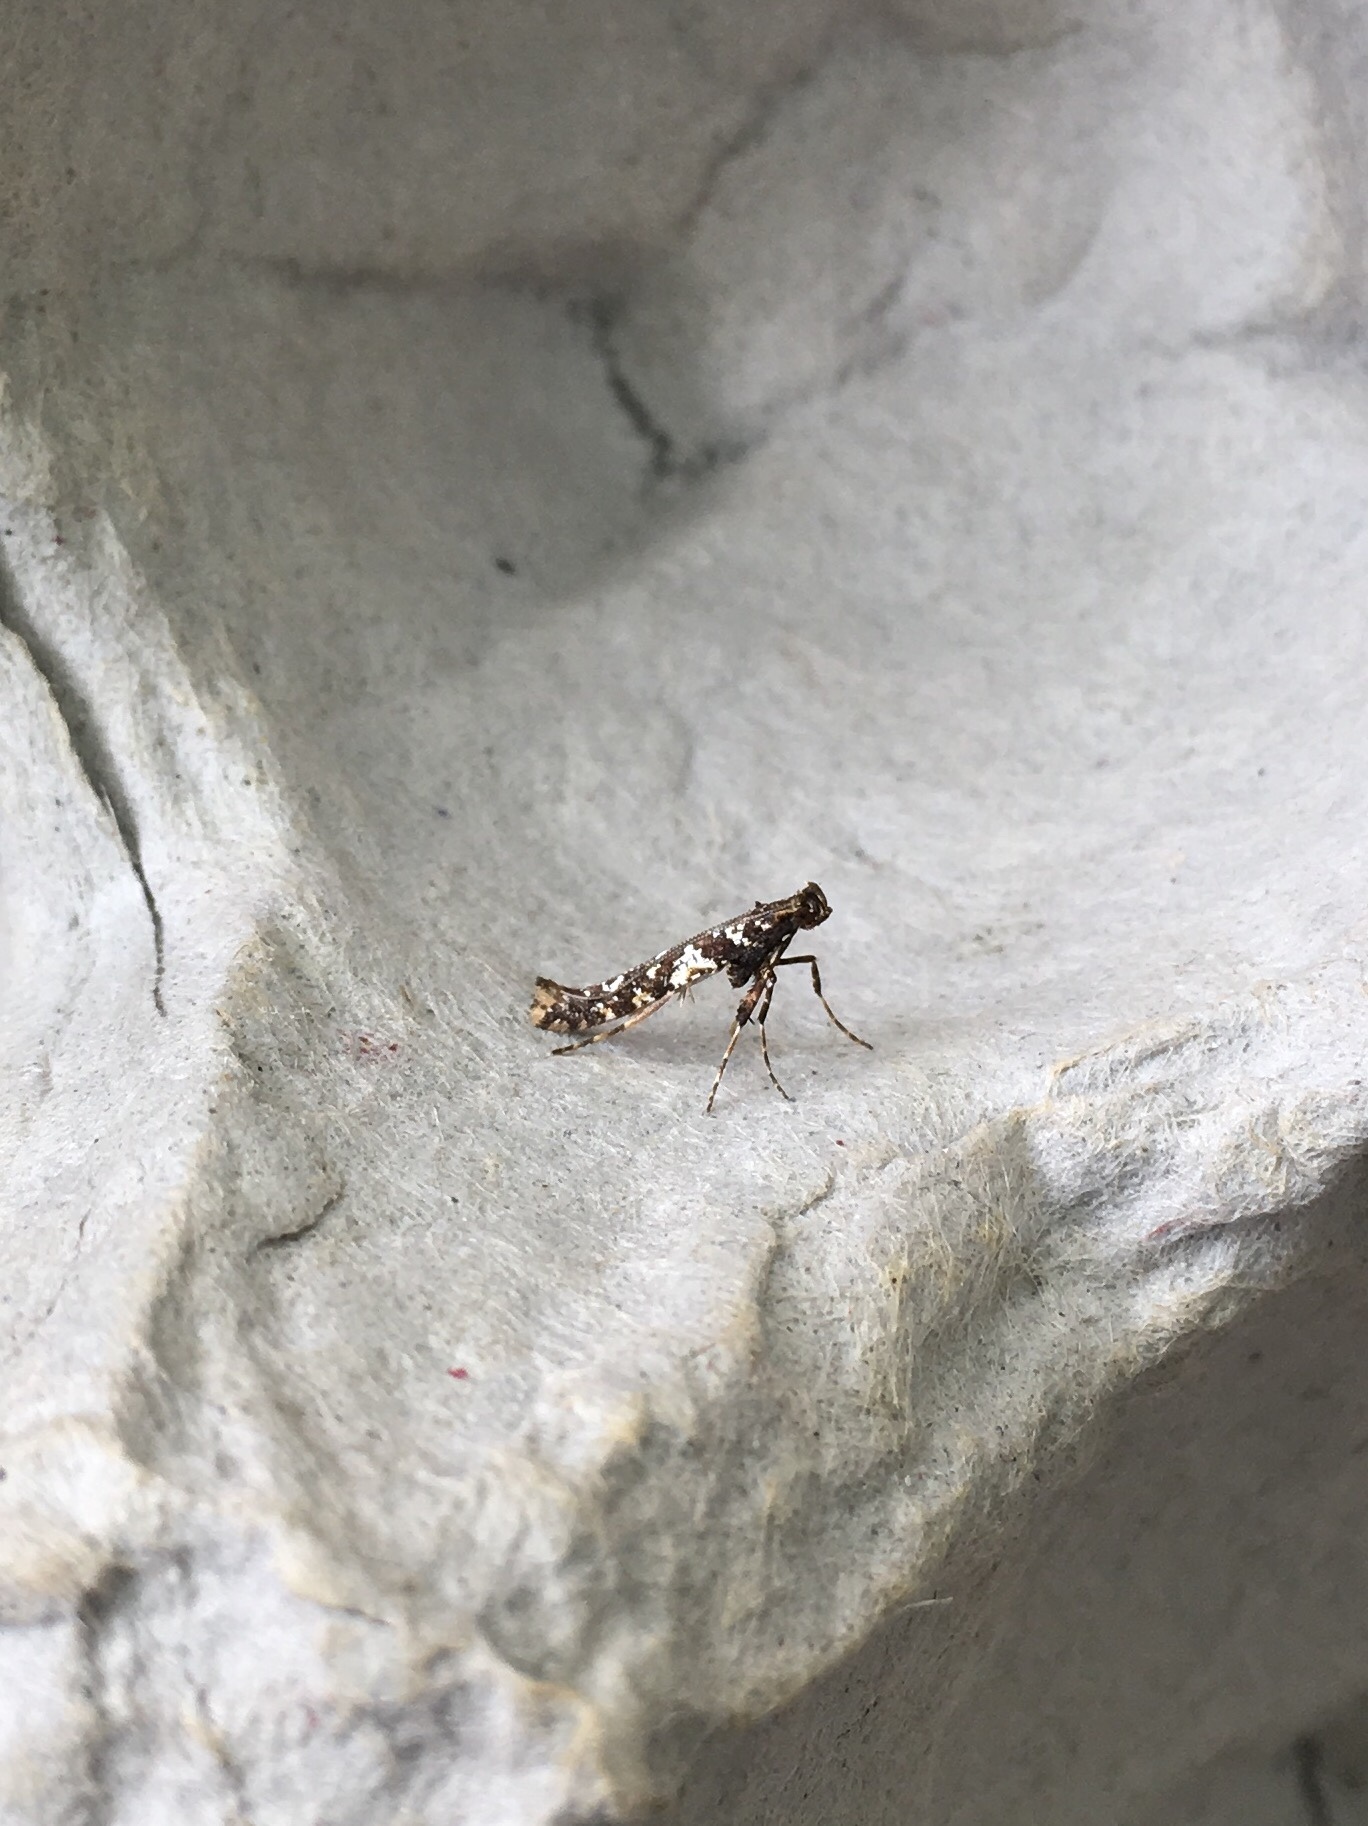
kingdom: Animalia
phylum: Arthropoda
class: Insecta
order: Lepidoptera
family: Gracillariidae
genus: Caloptilia
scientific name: Caloptilia serotinella
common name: Cherry leafroller moth
